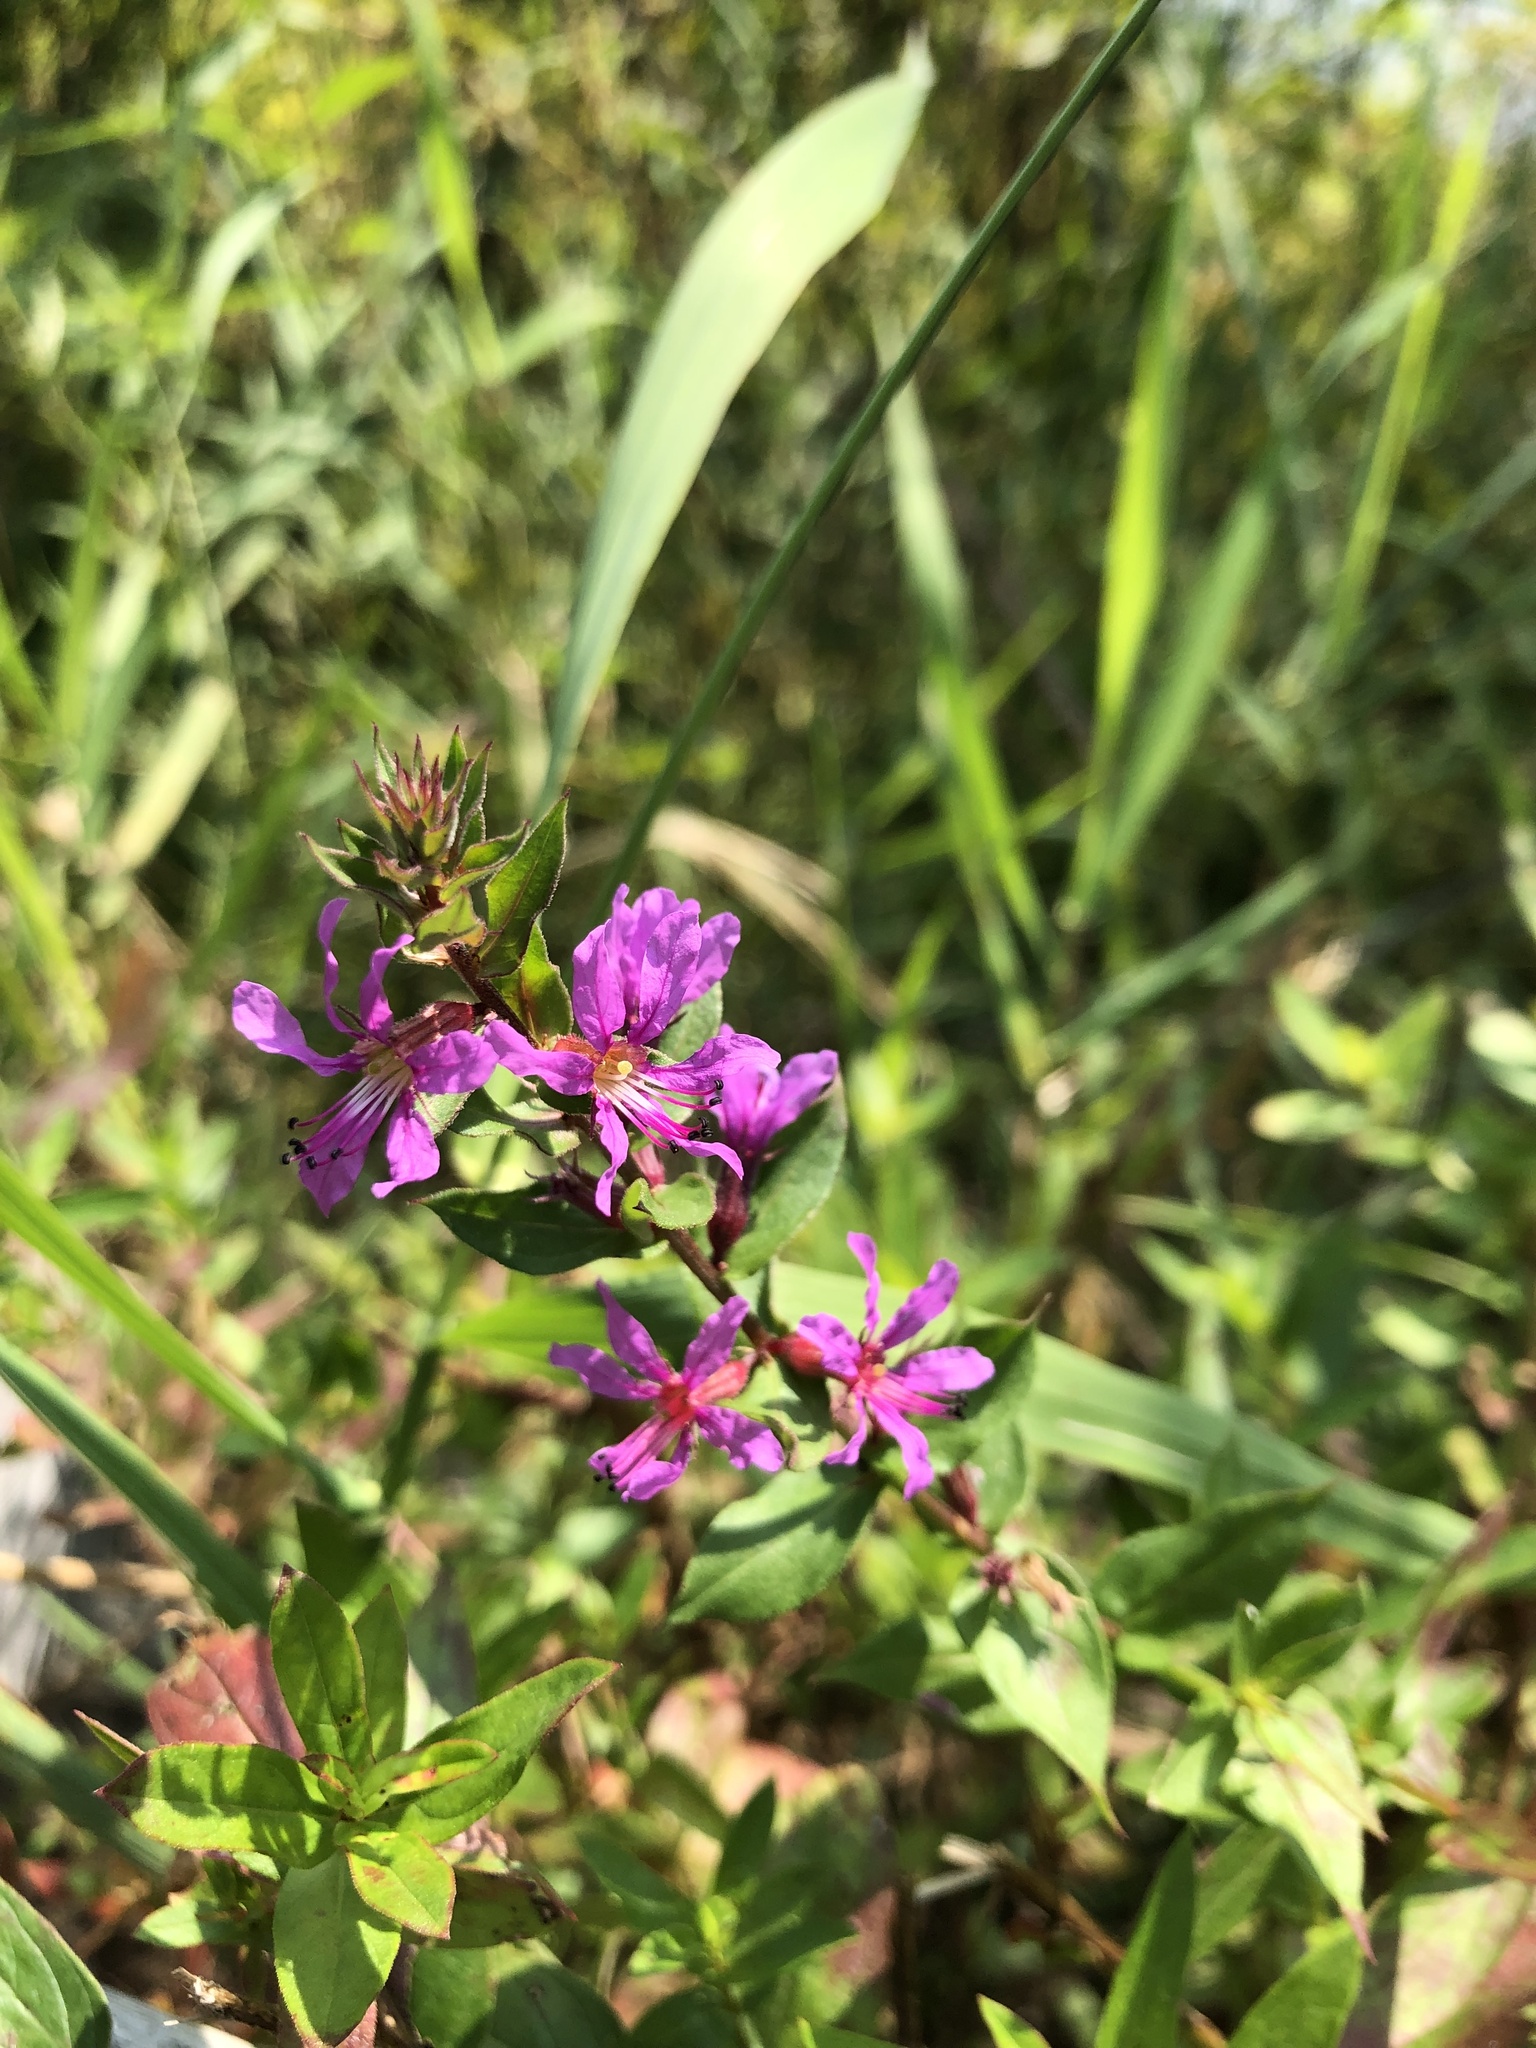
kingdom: Plantae
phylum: Tracheophyta
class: Magnoliopsida
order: Myrtales
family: Lythraceae
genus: Lythrum
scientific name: Lythrum salicaria
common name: Purple loosestrife
